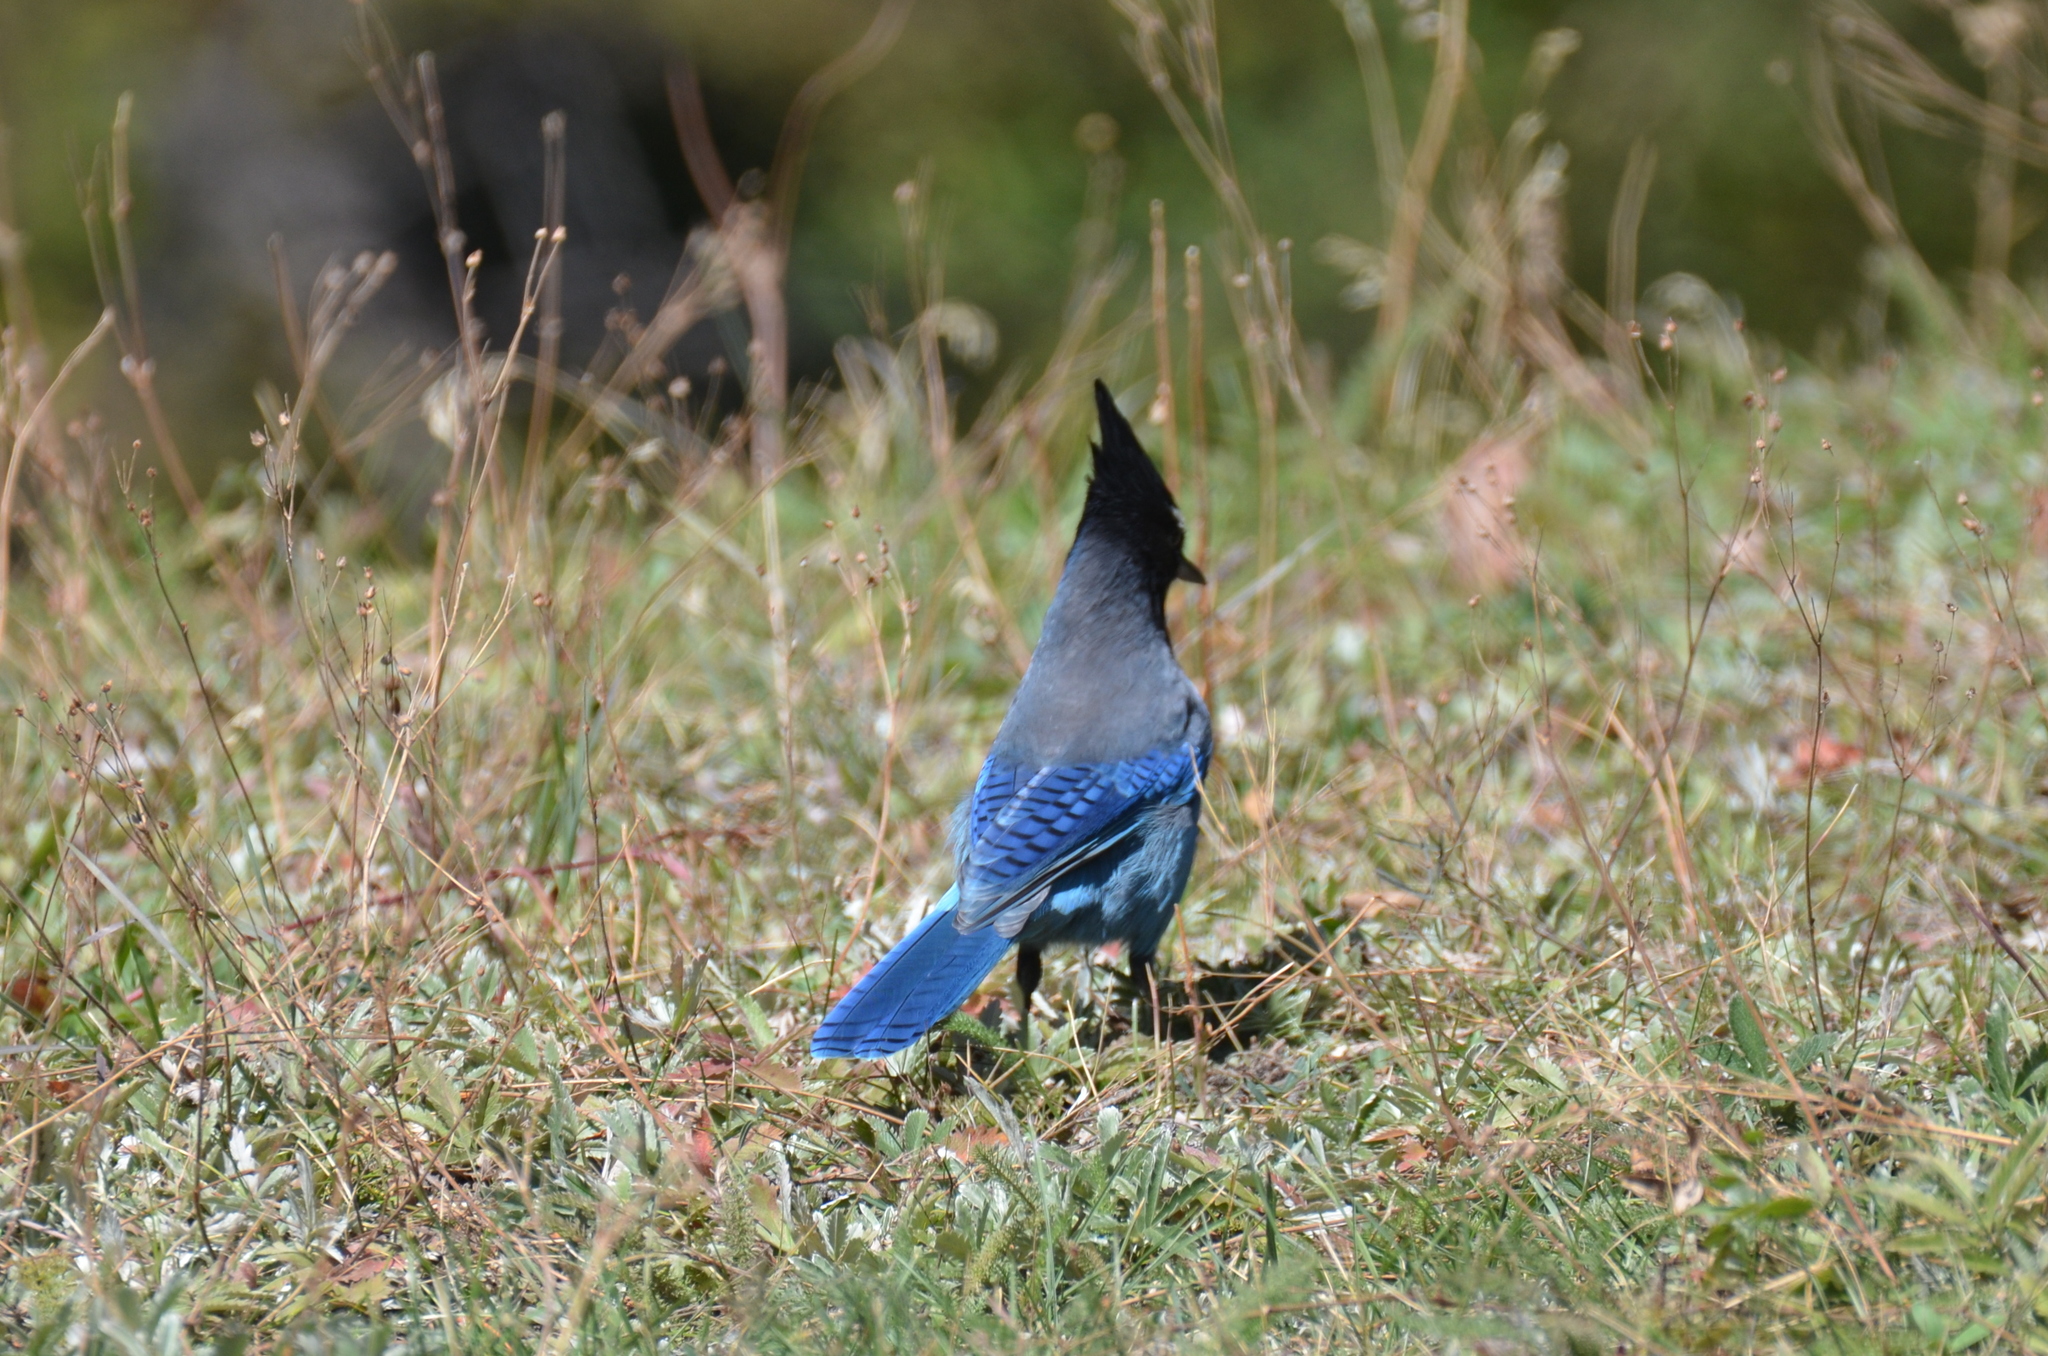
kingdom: Animalia
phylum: Chordata
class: Aves
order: Passeriformes
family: Corvidae
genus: Cyanocitta
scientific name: Cyanocitta stelleri
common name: Steller's jay
